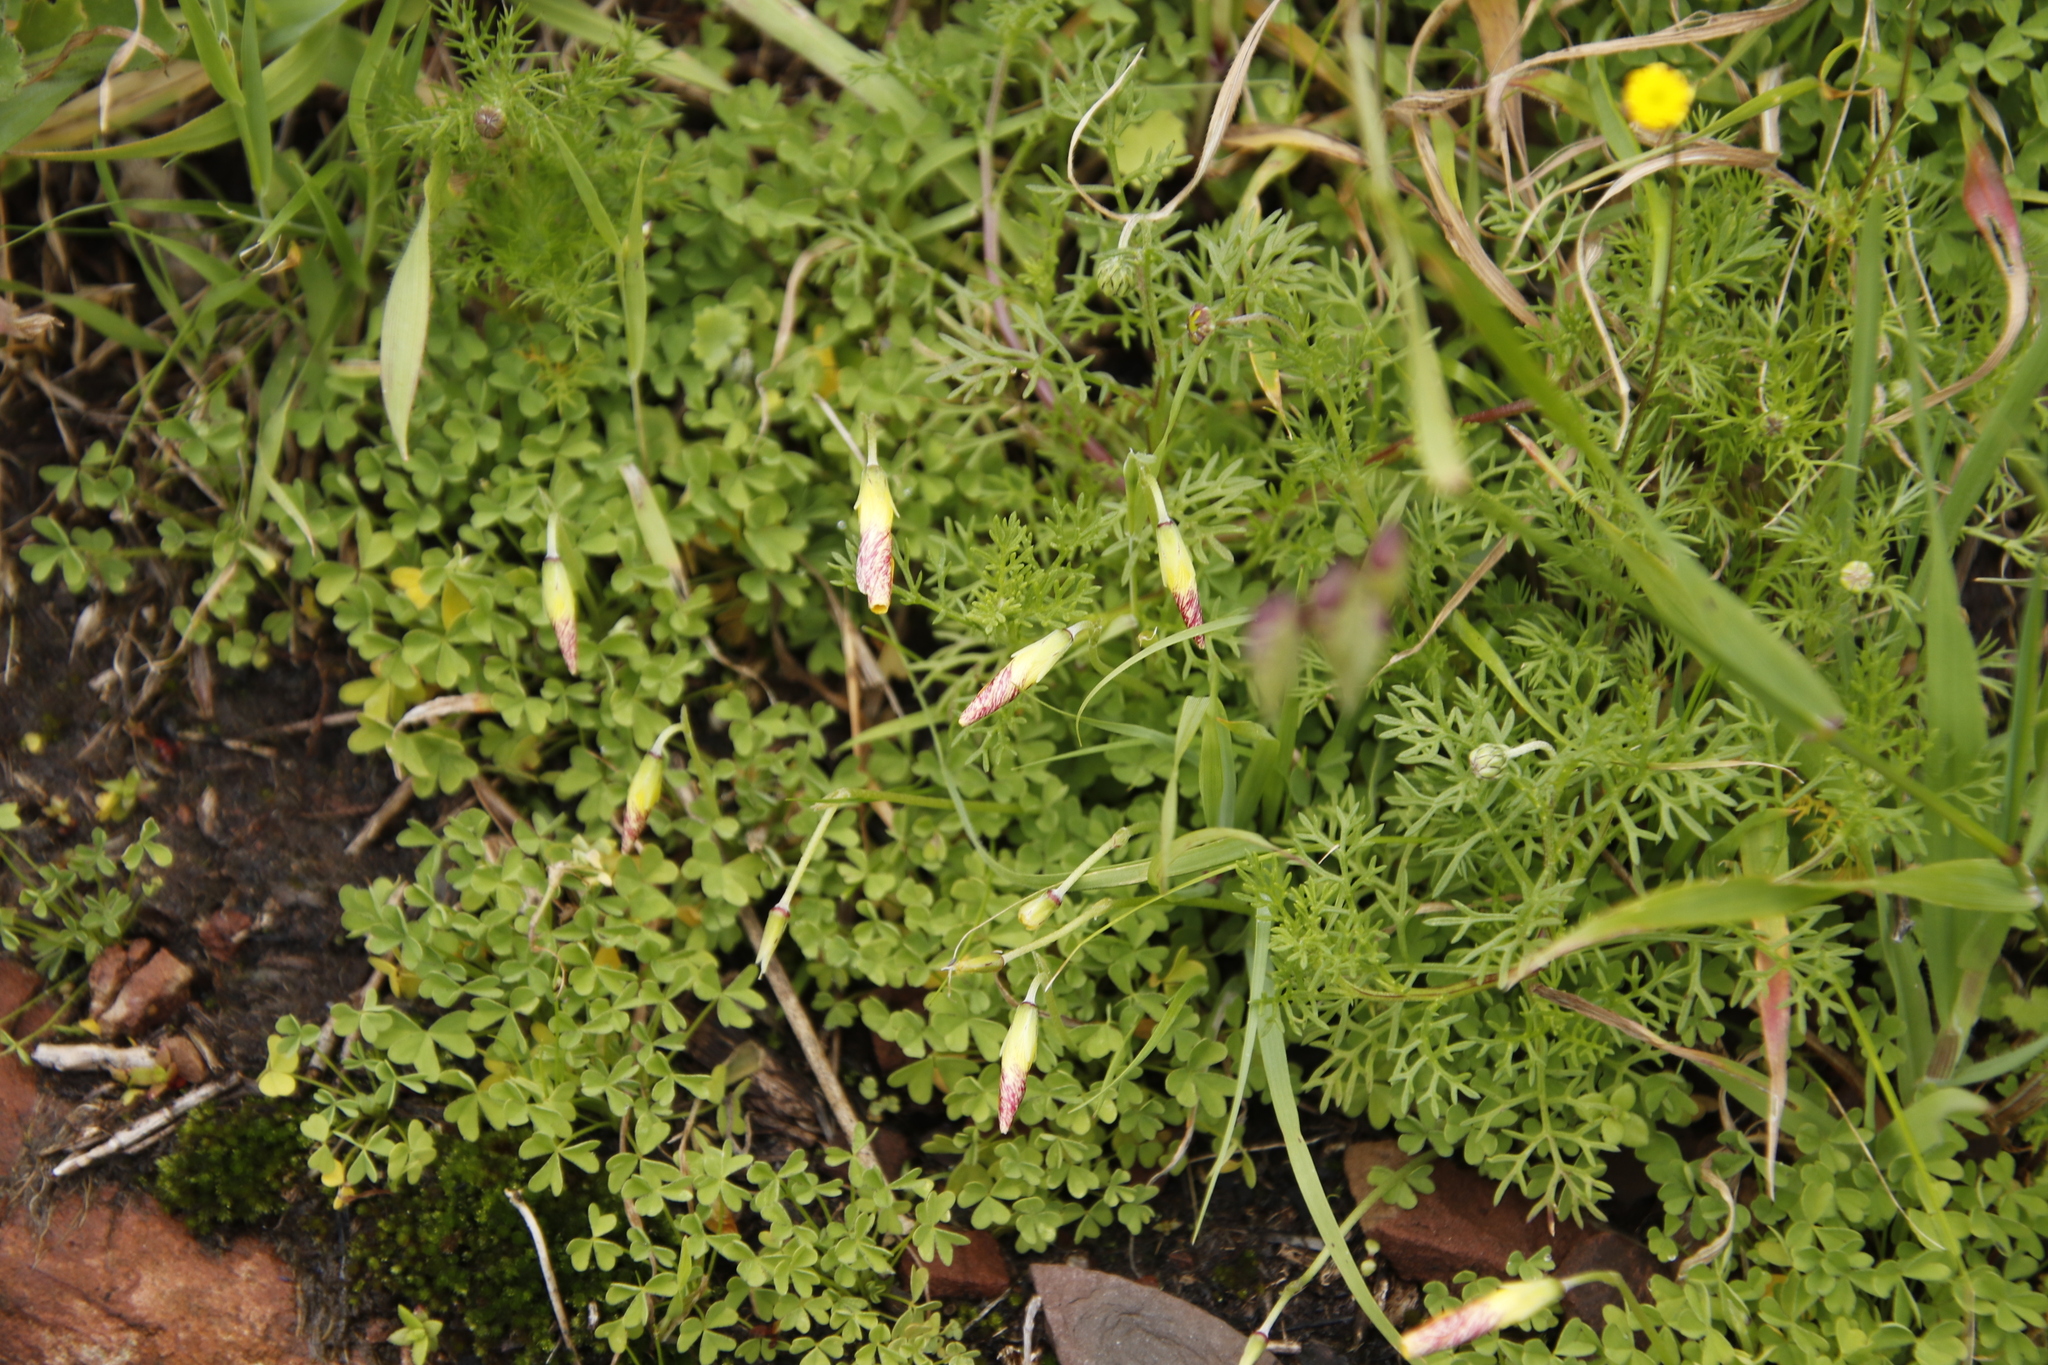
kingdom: Plantae
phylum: Tracheophyta
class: Magnoliopsida
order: Oxalidales
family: Oxalidaceae
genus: Oxalis
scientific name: Oxalis obtusa
